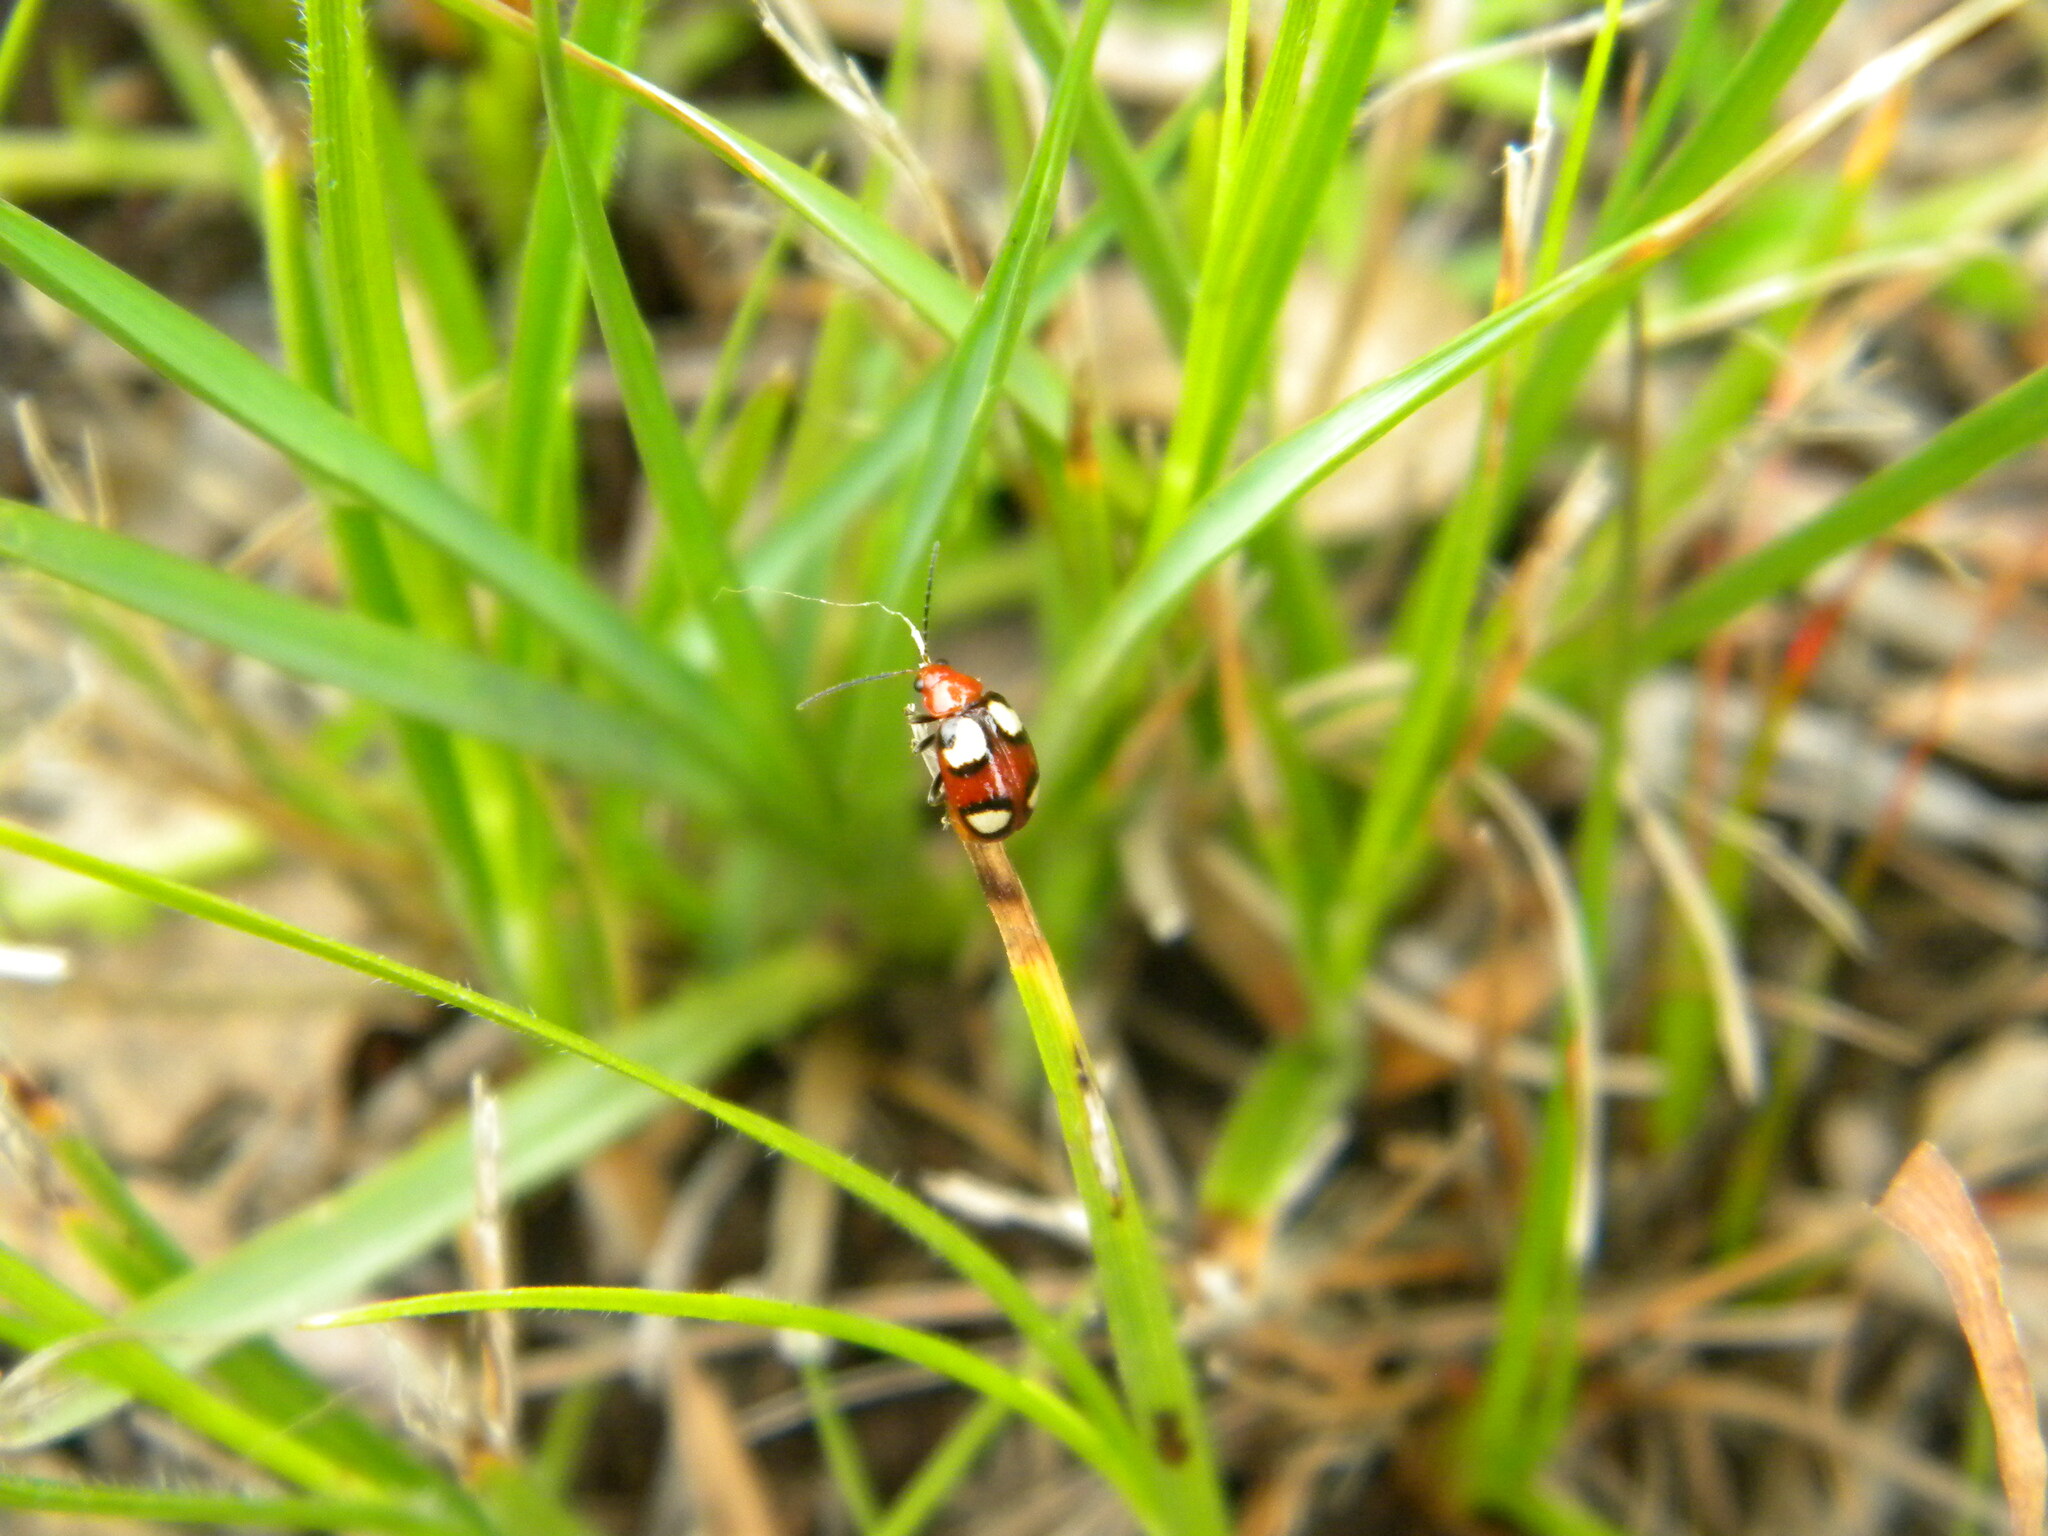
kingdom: Animalia
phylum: Arthropoda
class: Insecta
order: Coleoptera
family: Chrysomelidae
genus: Monolepta
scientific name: Monolepta
